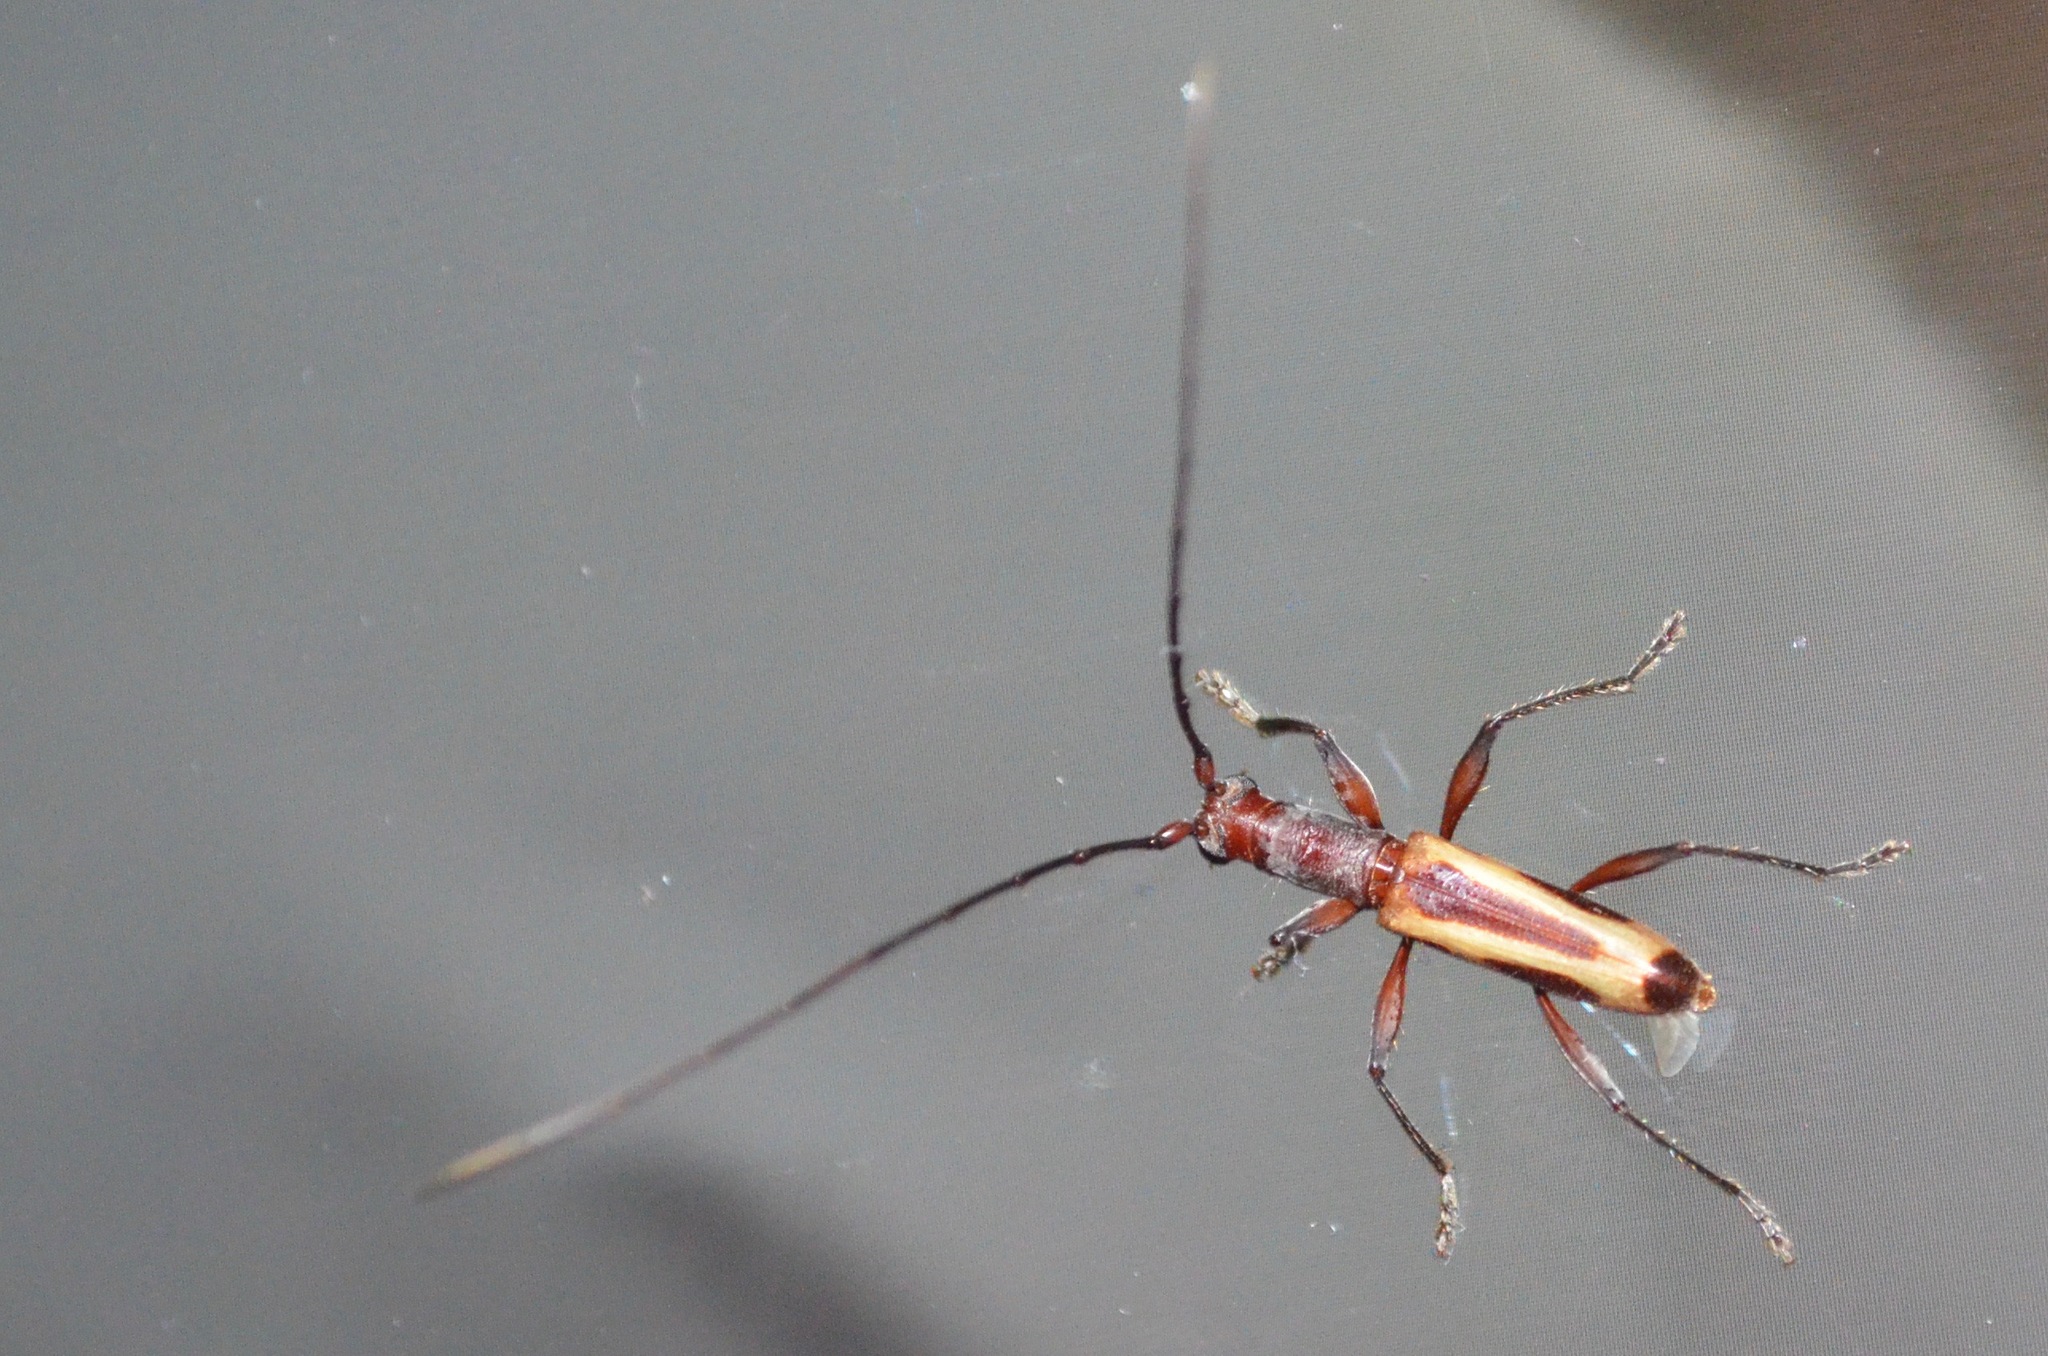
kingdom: Animalia
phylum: Arthropoda
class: Insecta
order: Coleoptera
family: Cerambycidae
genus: Thoracibidion
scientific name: Thoracibidion buquetii
